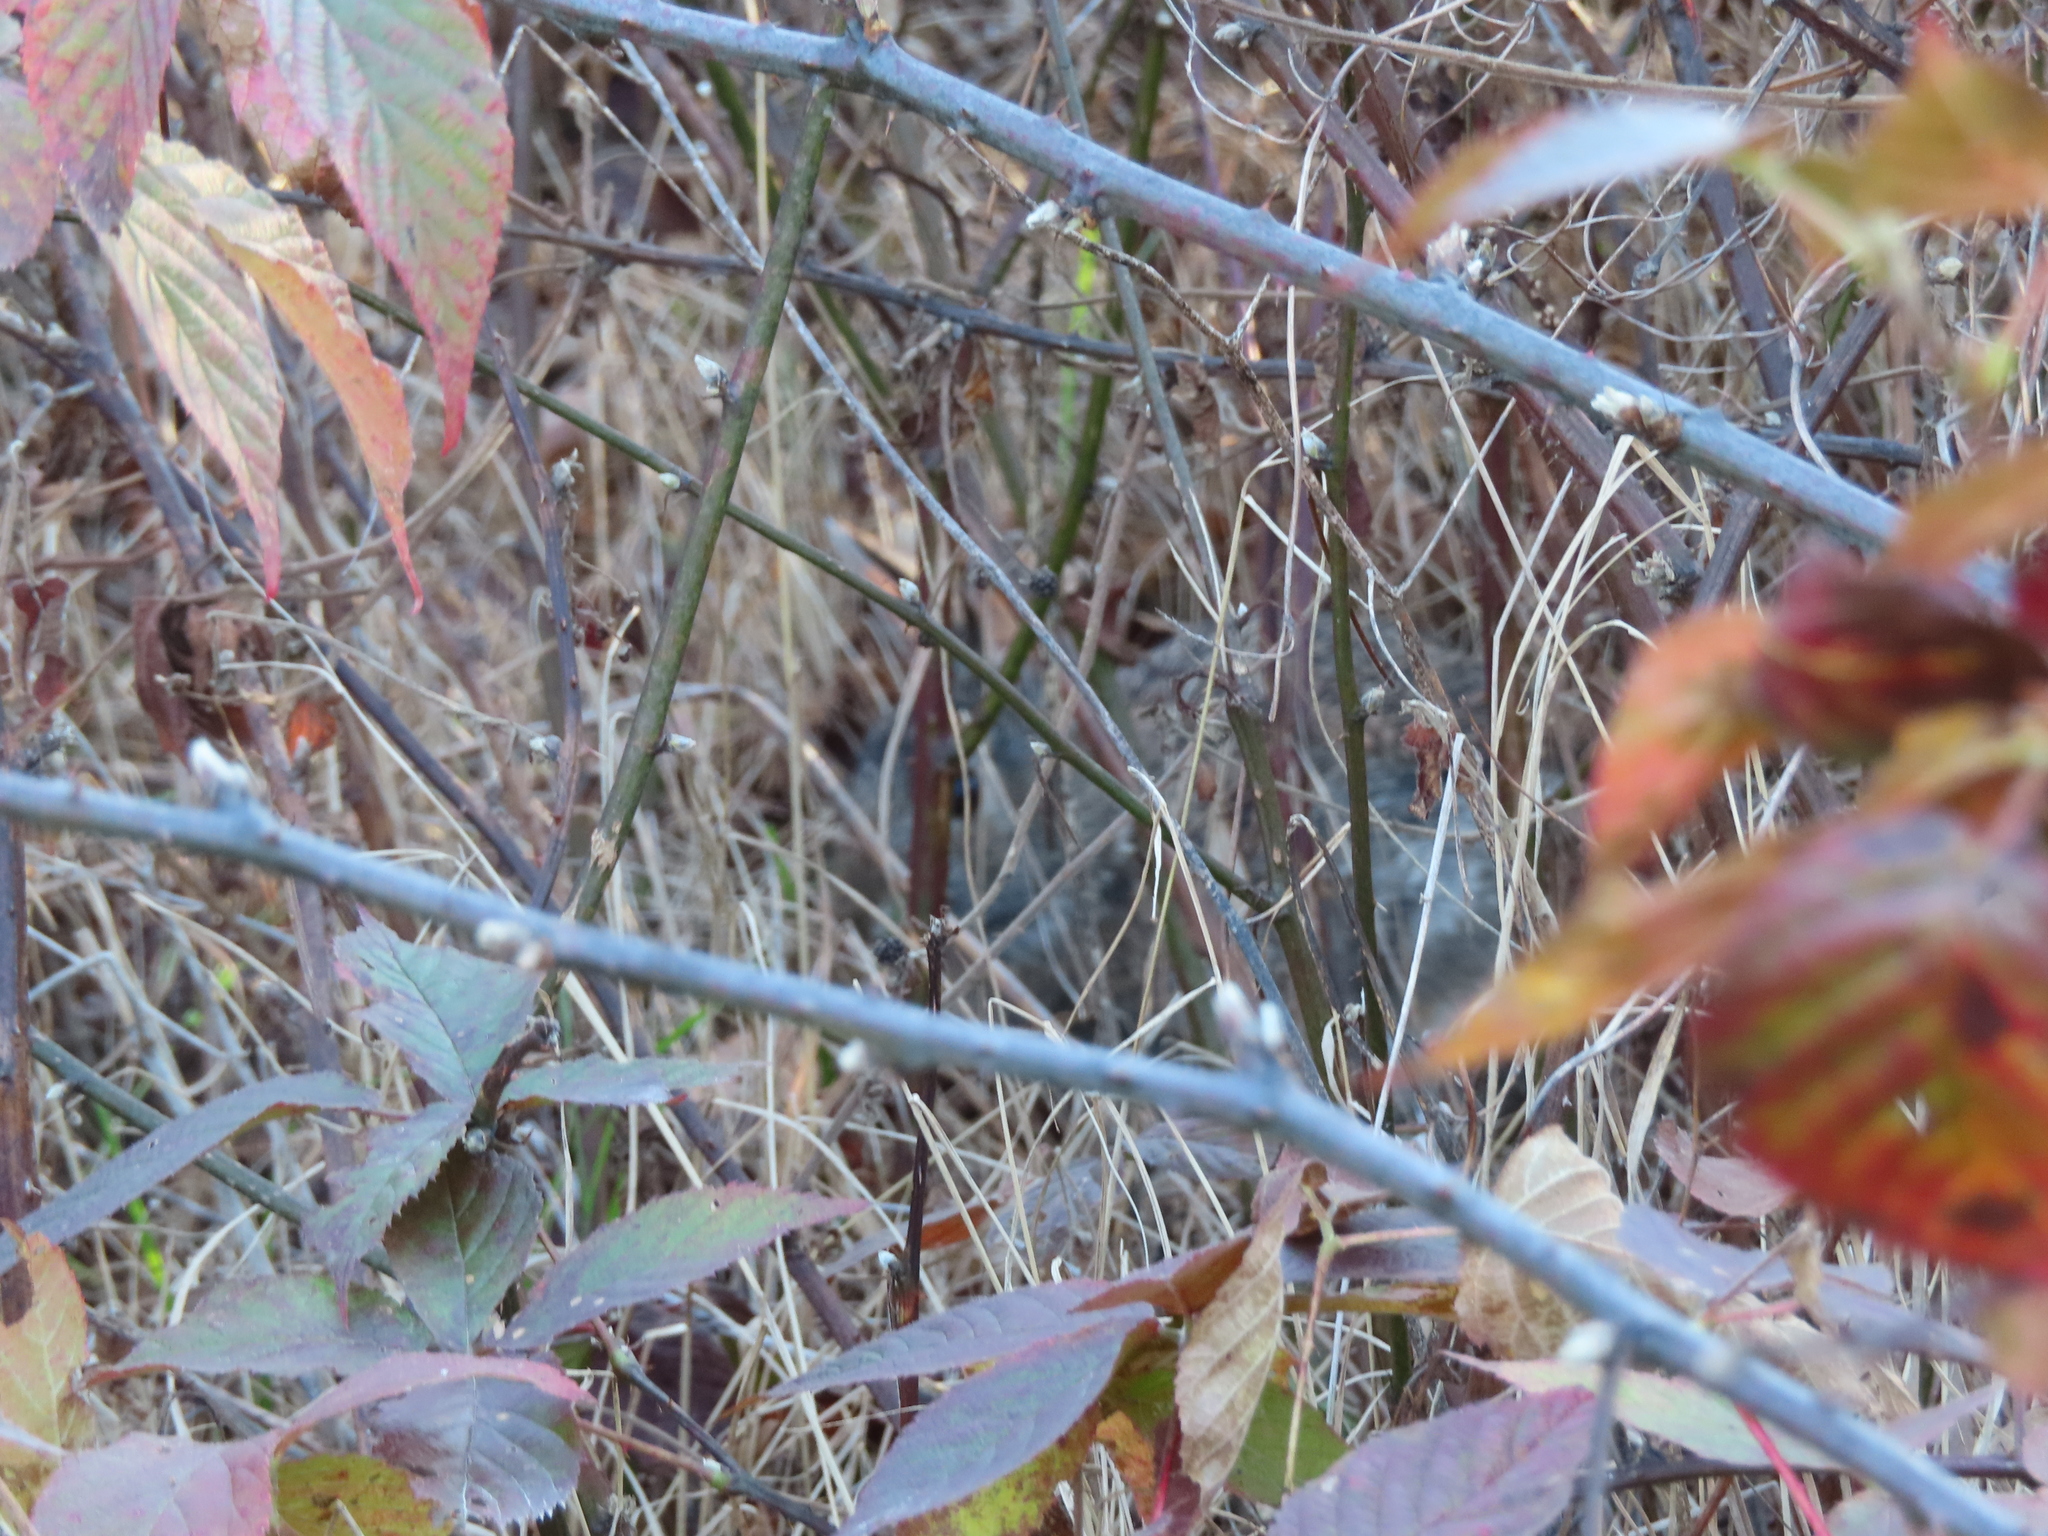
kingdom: Animalia
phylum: Chordata
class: Mammalia
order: Lagomorpha
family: Leporidae
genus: Sylvilagus
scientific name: Sylvilagus floridanus
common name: Eastern cottontail
